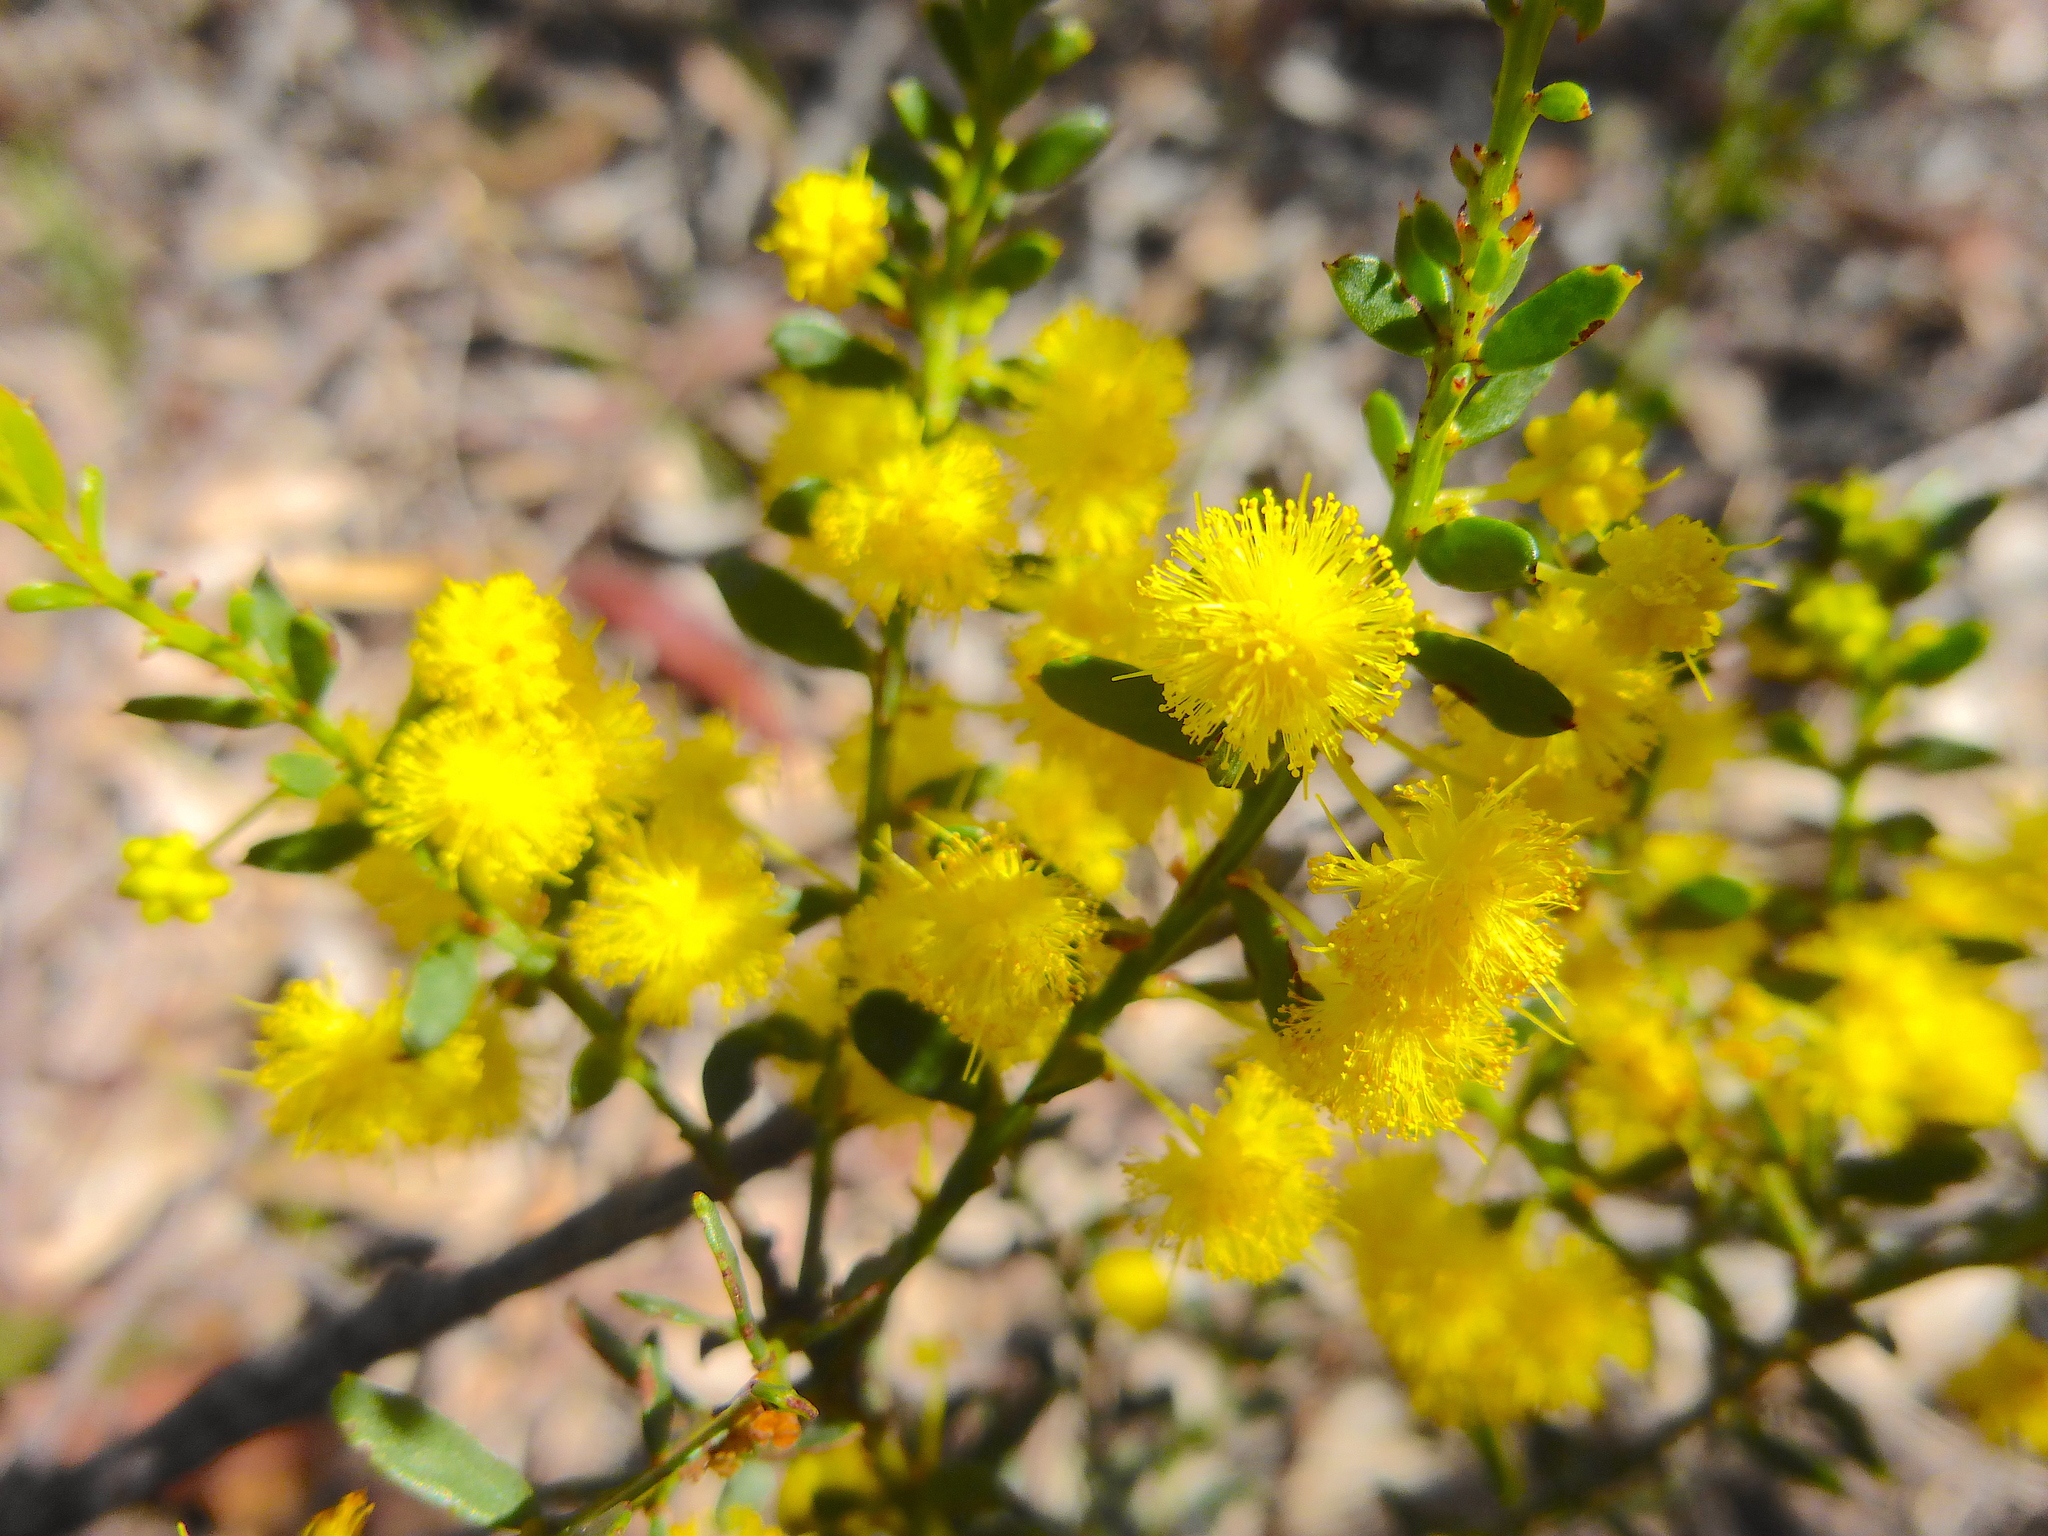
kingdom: Plantae
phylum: Tracheophyta
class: Magnoliopsida
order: Fabales
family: Fabaceae
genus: Acacia
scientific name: Acacia acinacea
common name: Gold-dust acacia
